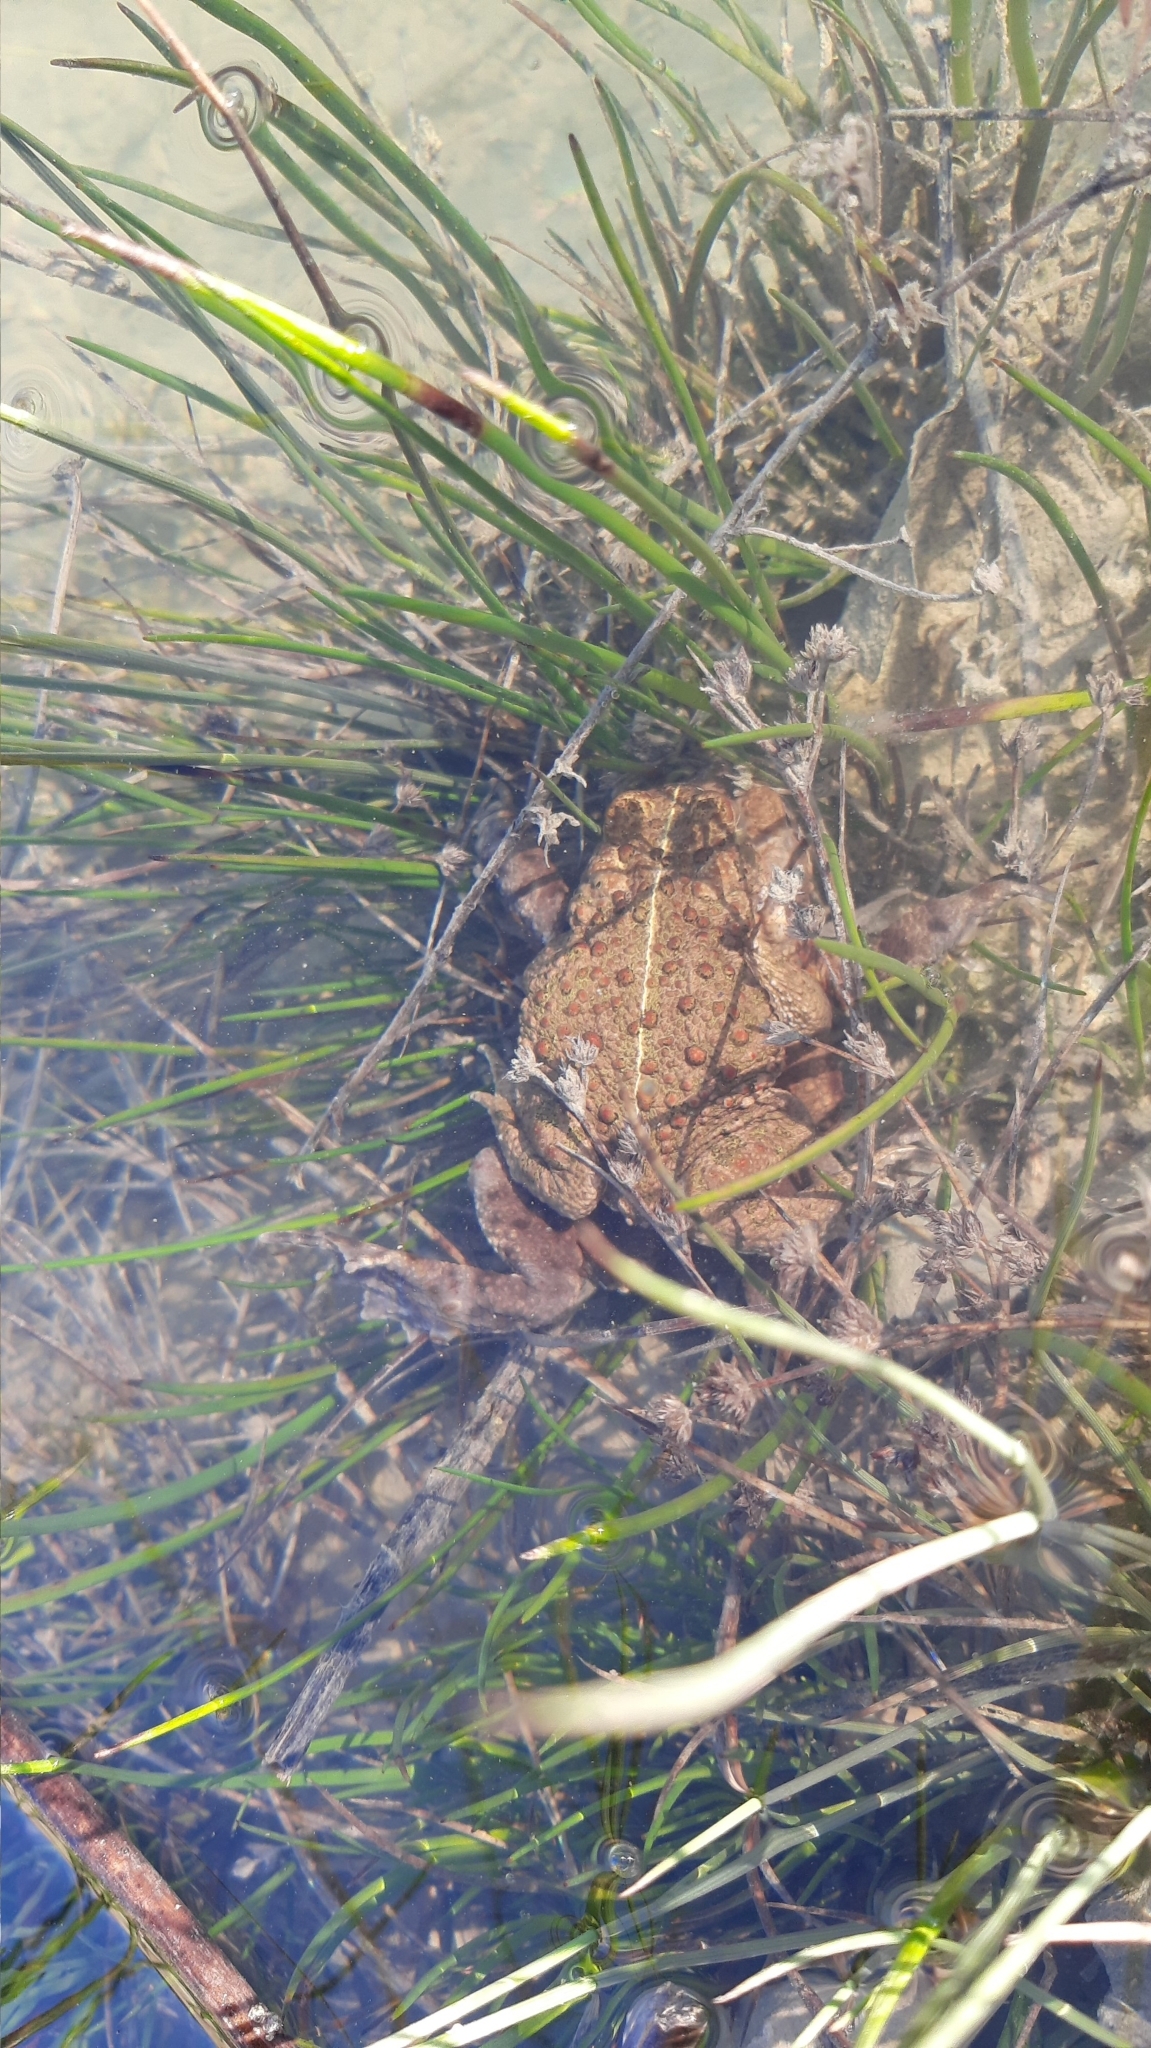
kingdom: Animalia
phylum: Chordata
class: Amphibia
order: Anura
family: Bufonidae
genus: Epidalea
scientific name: Epidalea calamita
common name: Natterjack toad
